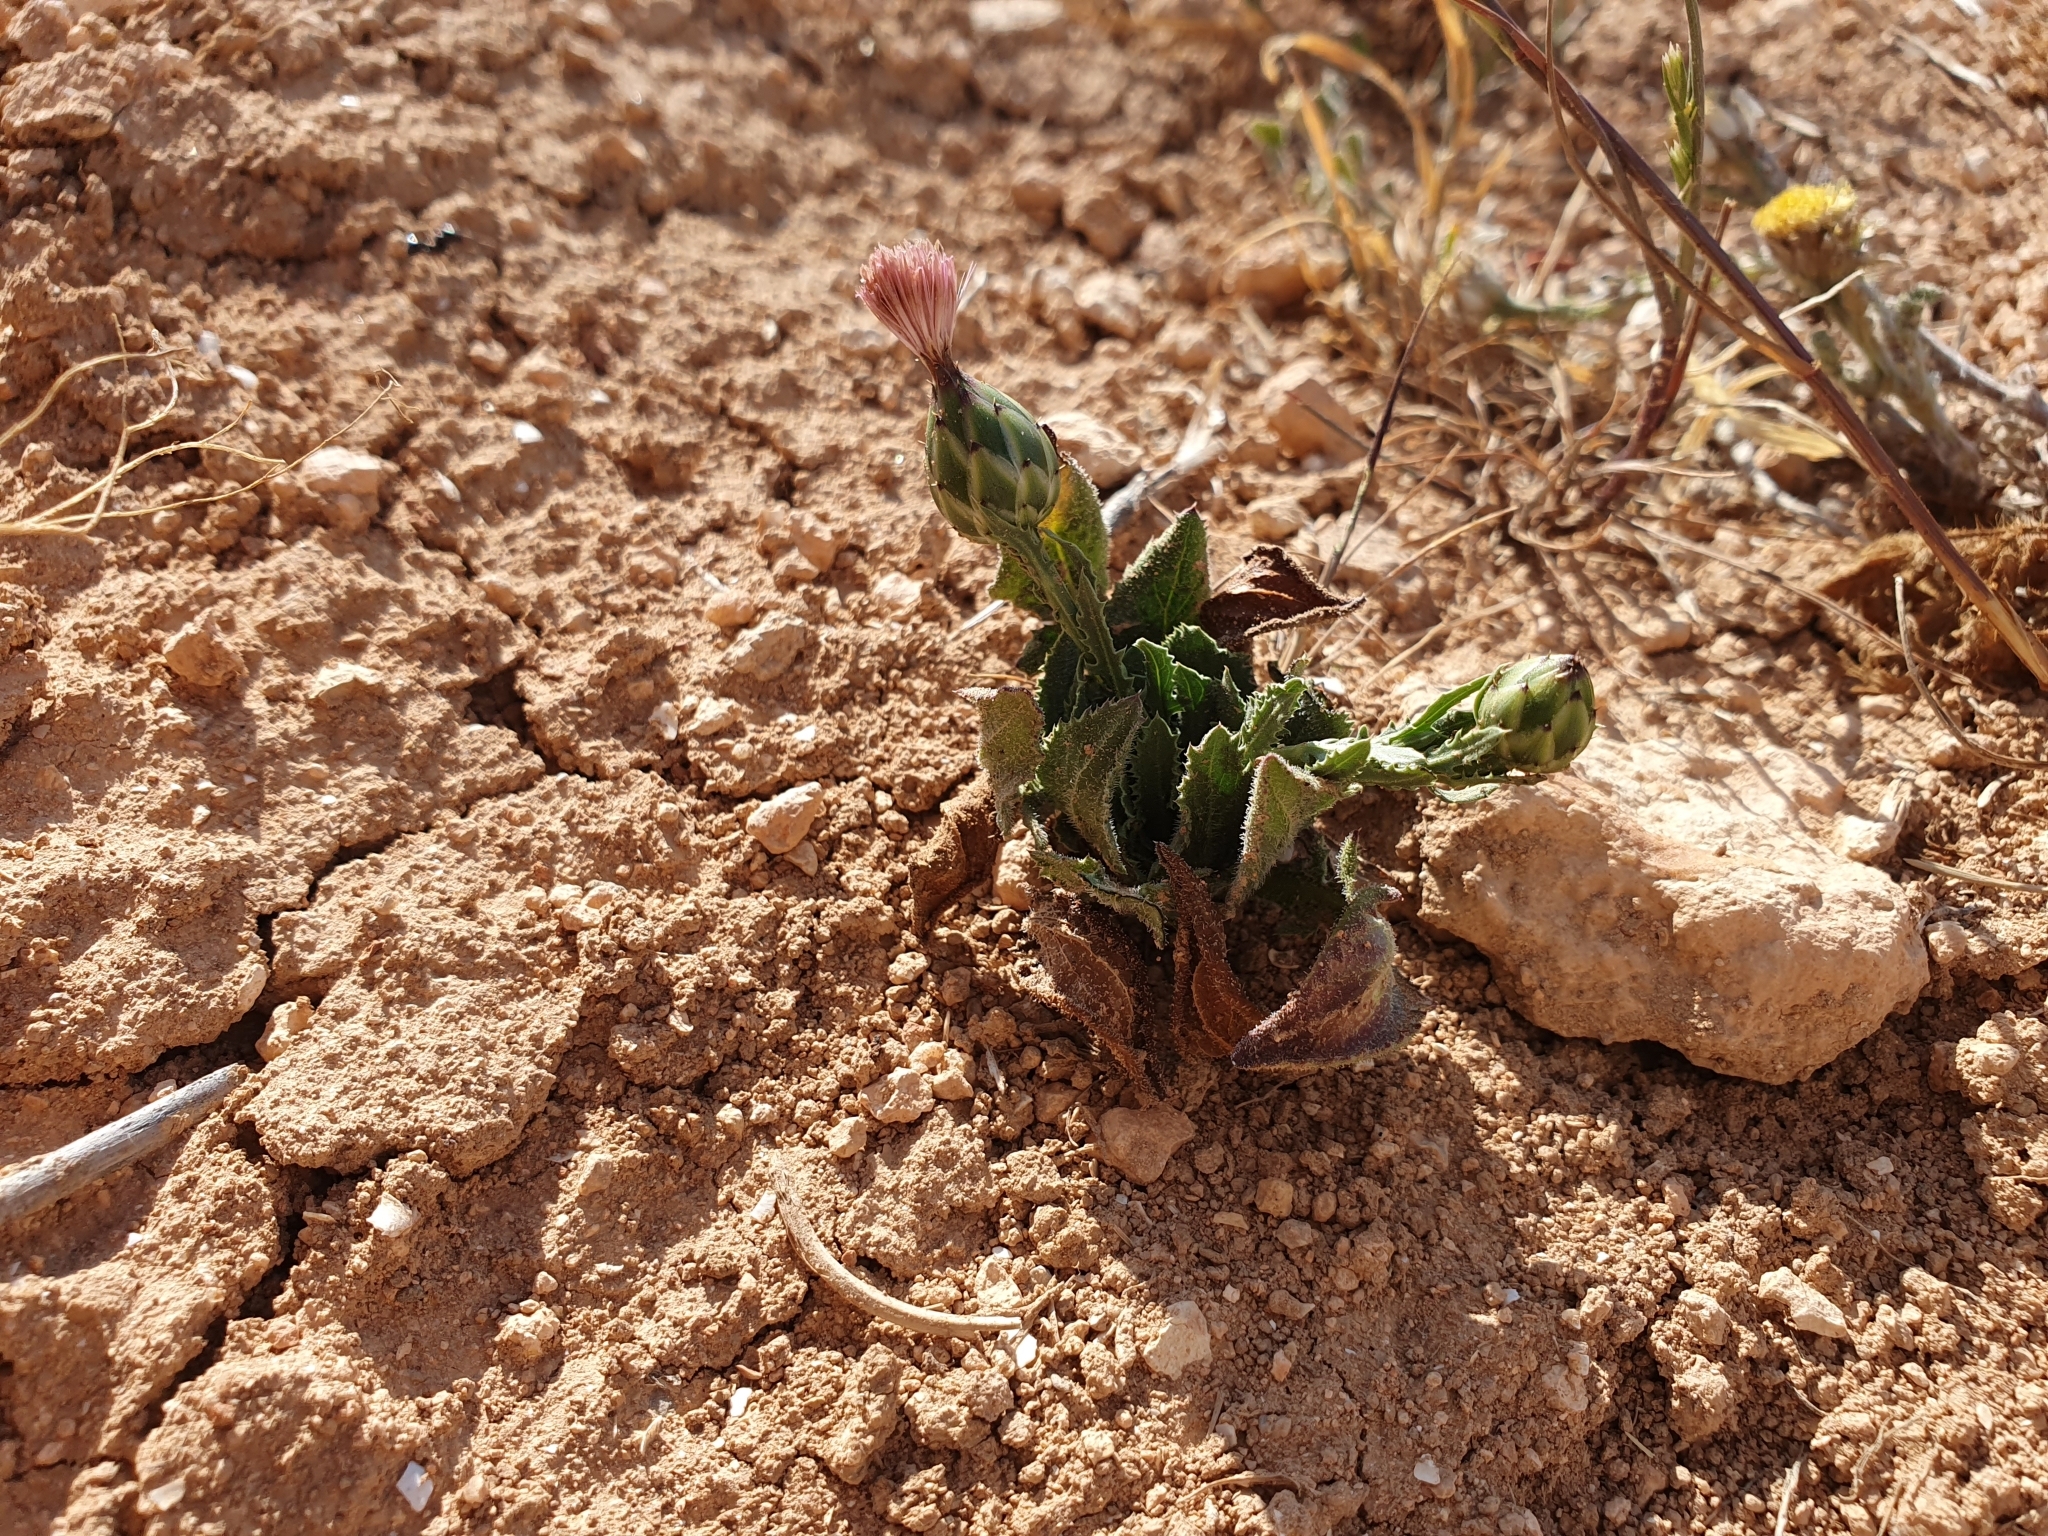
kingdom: Plantae
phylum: Tracheophyta
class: Magnoliopsida
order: Asterales
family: Asteraceae
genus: Mantisalca
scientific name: Mantisalca salmantica
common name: Dagger flower
